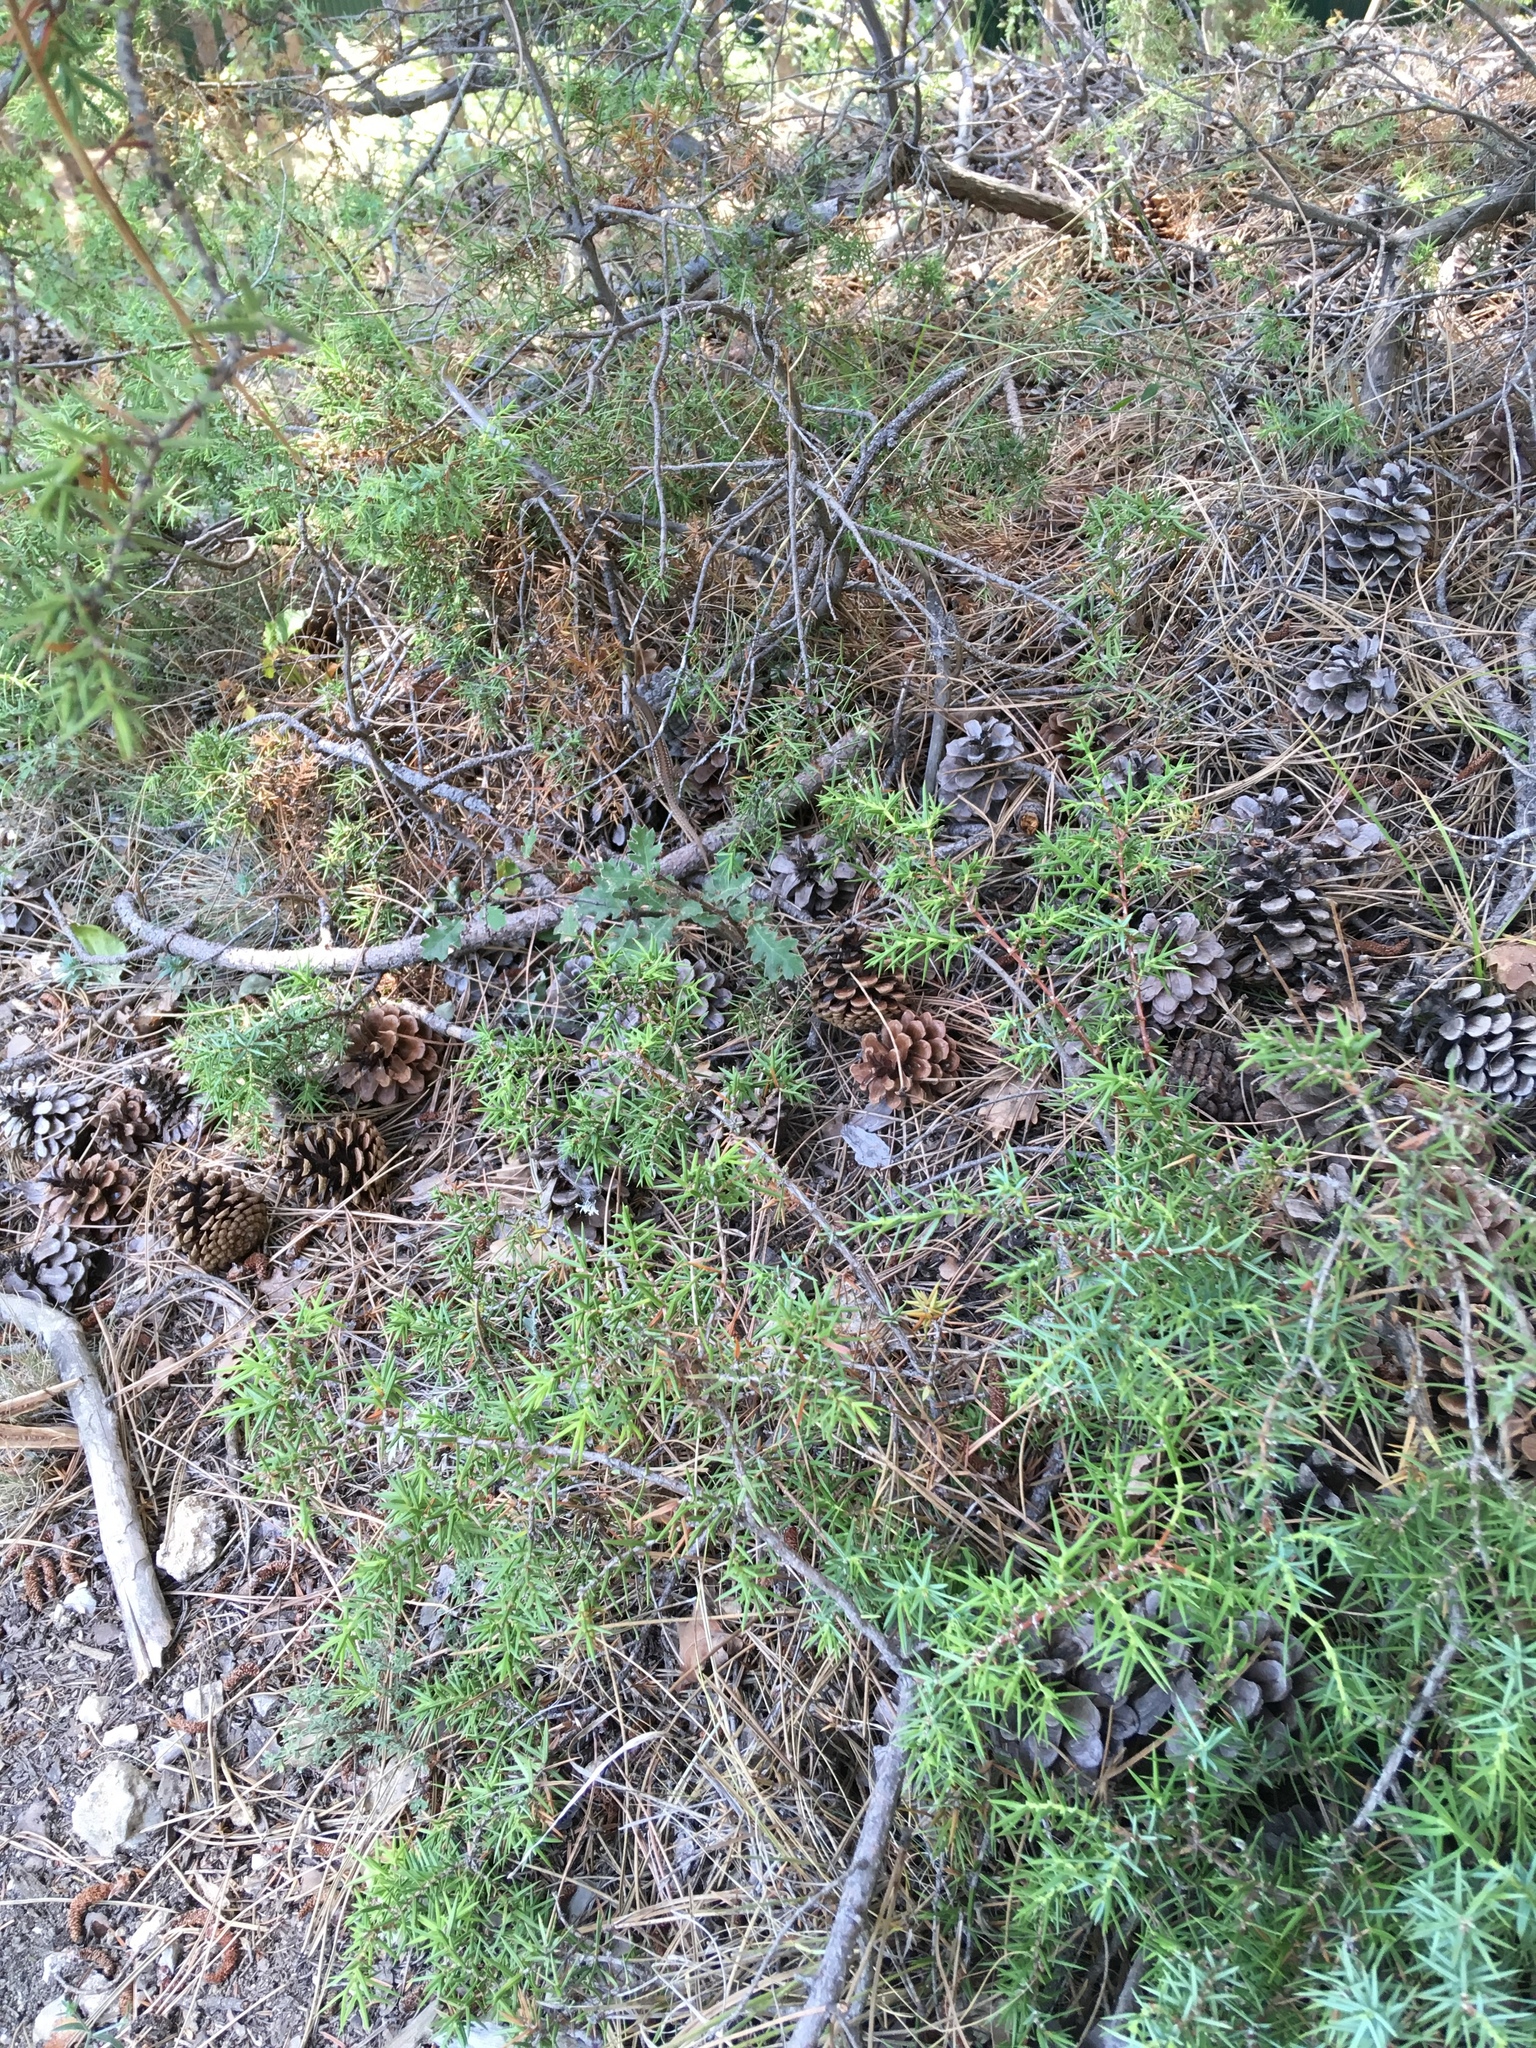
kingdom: Plantae
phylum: Tracheophyta
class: Pinopsida
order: Pinales
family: Cupressaceae
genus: Juniperus
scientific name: Juniperus oxycedrus
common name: Prickly juniper
